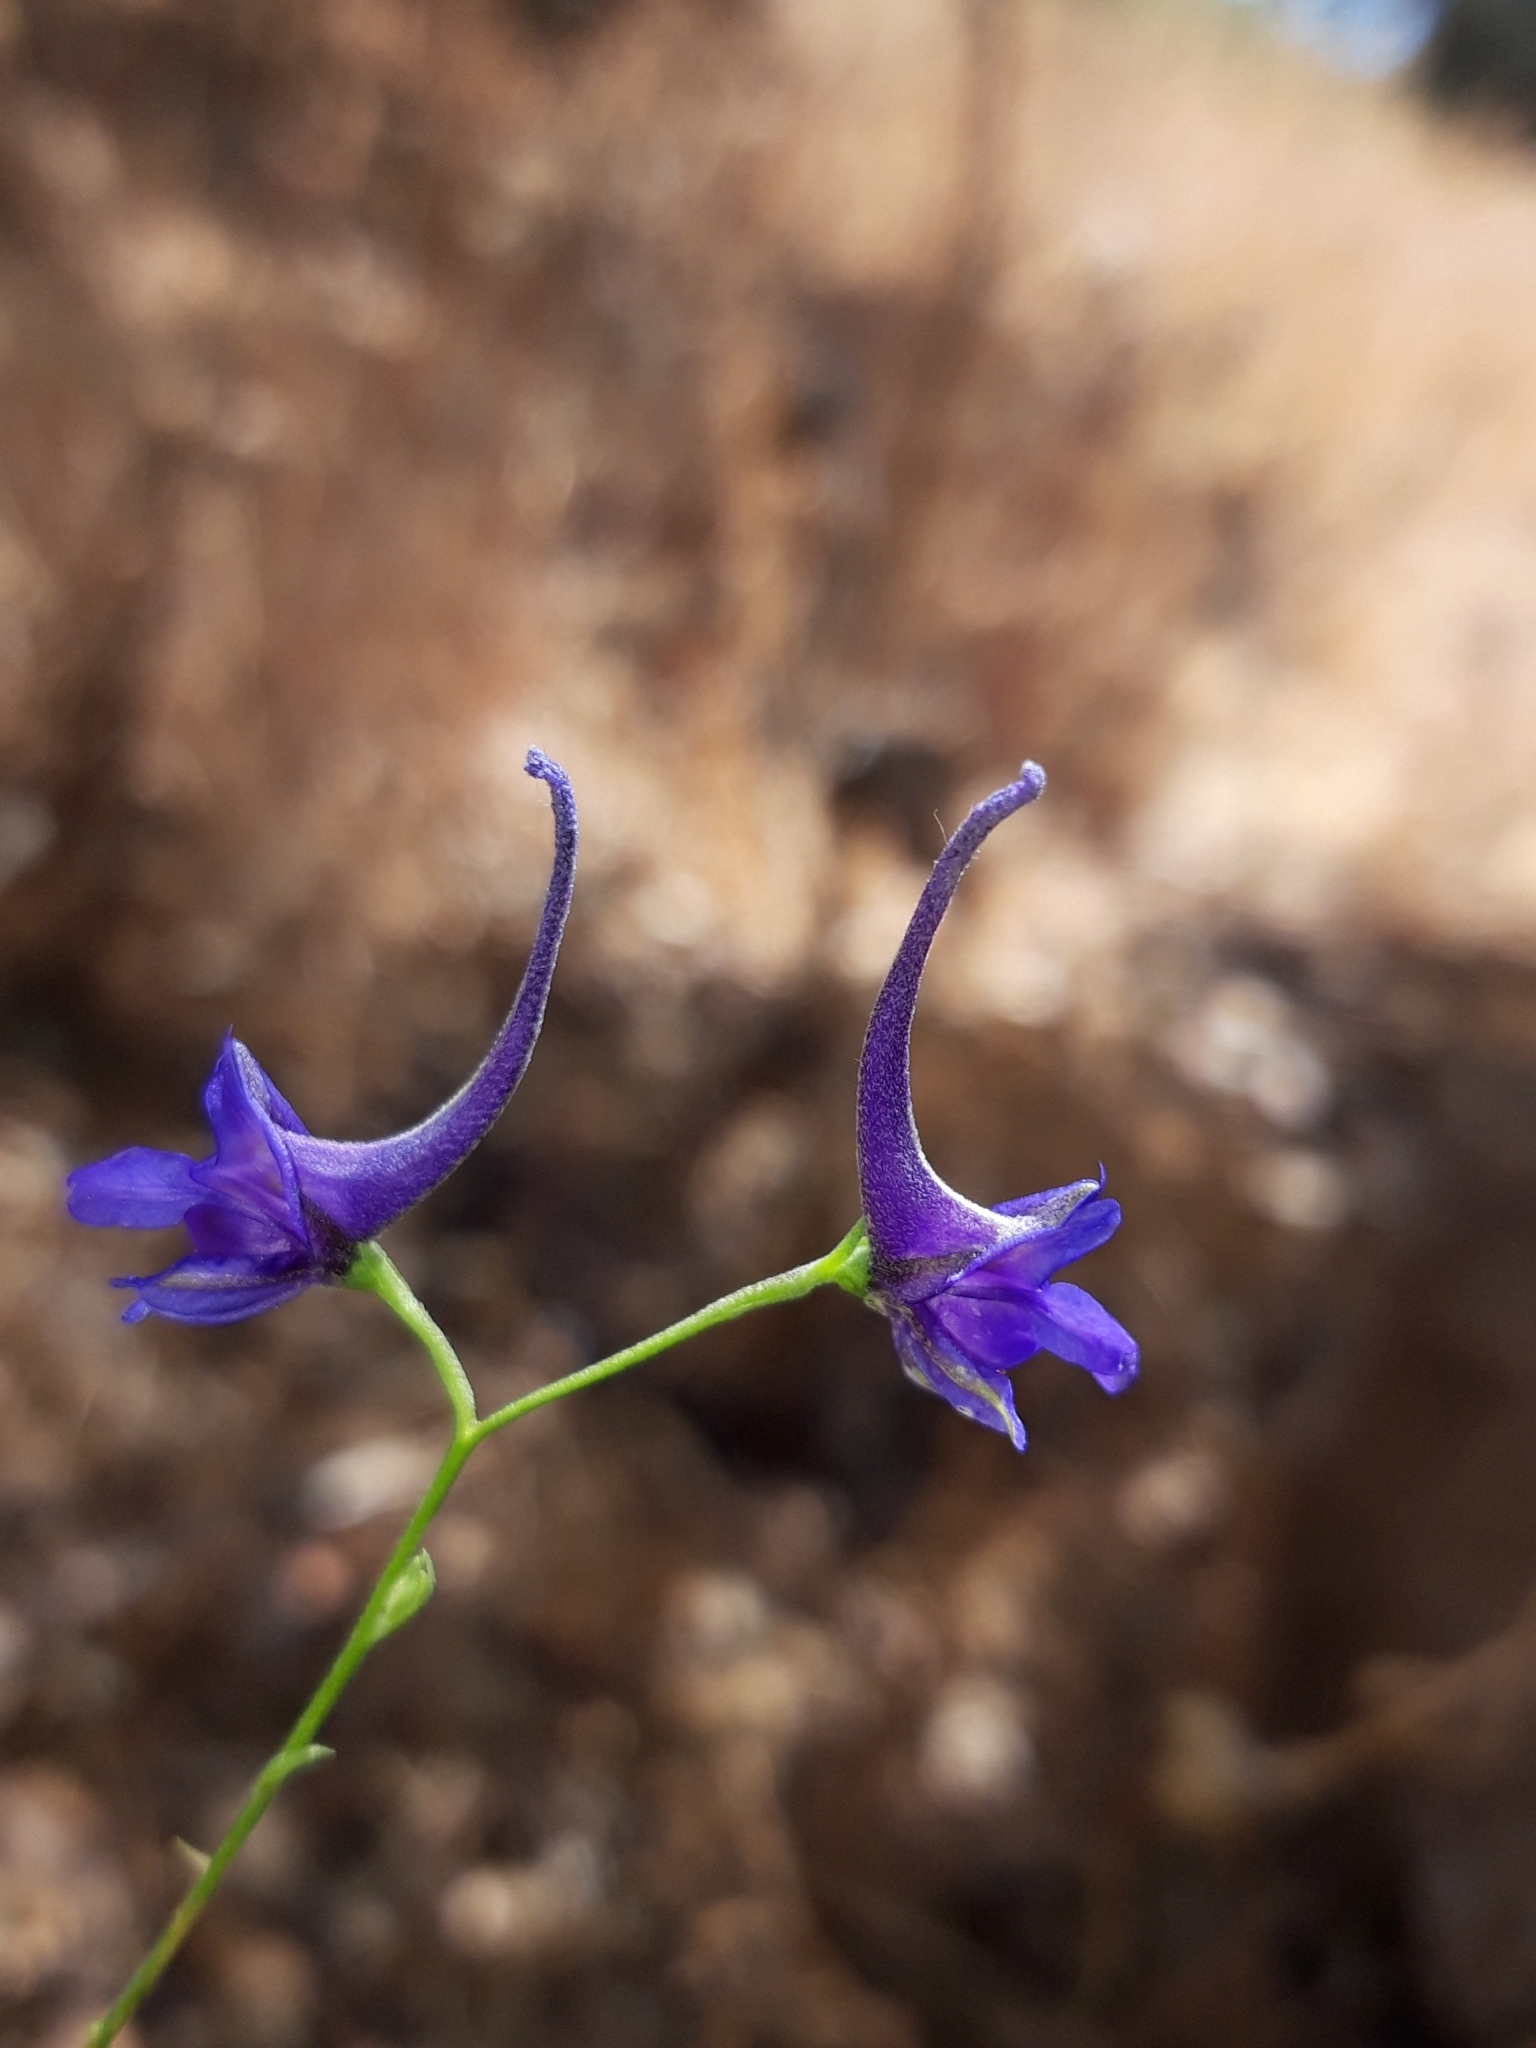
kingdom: Plantae
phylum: Tracheophyta
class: Magnoliopsida
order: Ranunculales
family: Ranunculaceae
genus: Delphinium
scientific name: Delphinium gracile
